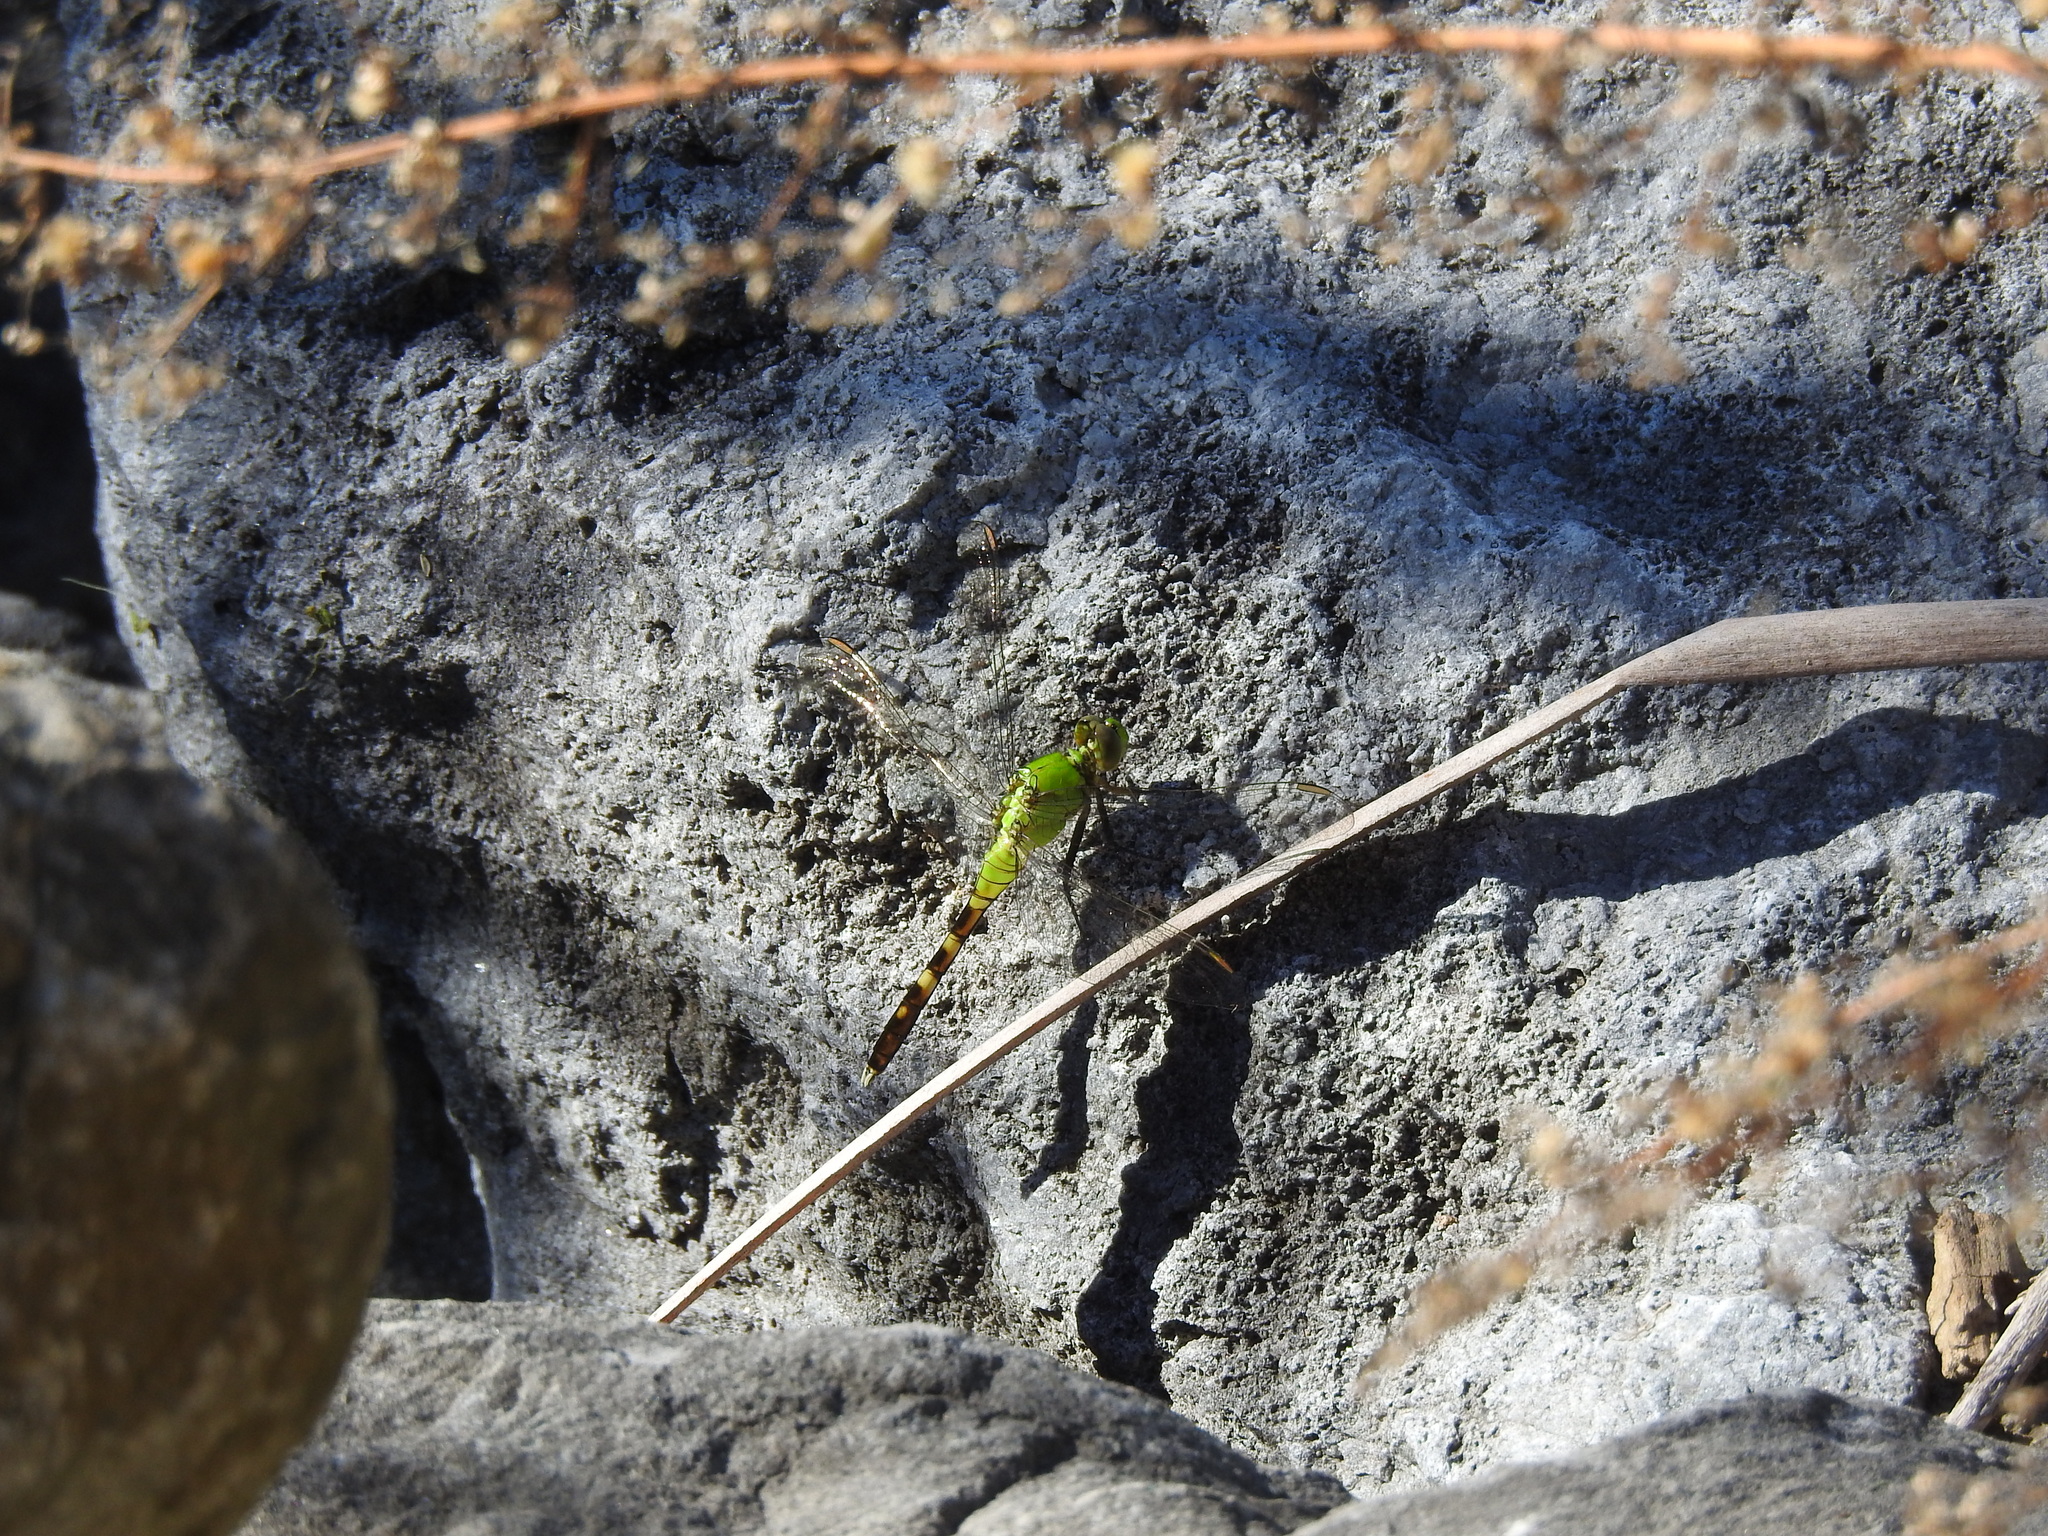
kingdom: Animalia
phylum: Arthropoda
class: Insecta
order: Odonata
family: Libellulidae
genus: Erythemis
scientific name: Erythemis simplicicollis
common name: Eastern pondhawk
